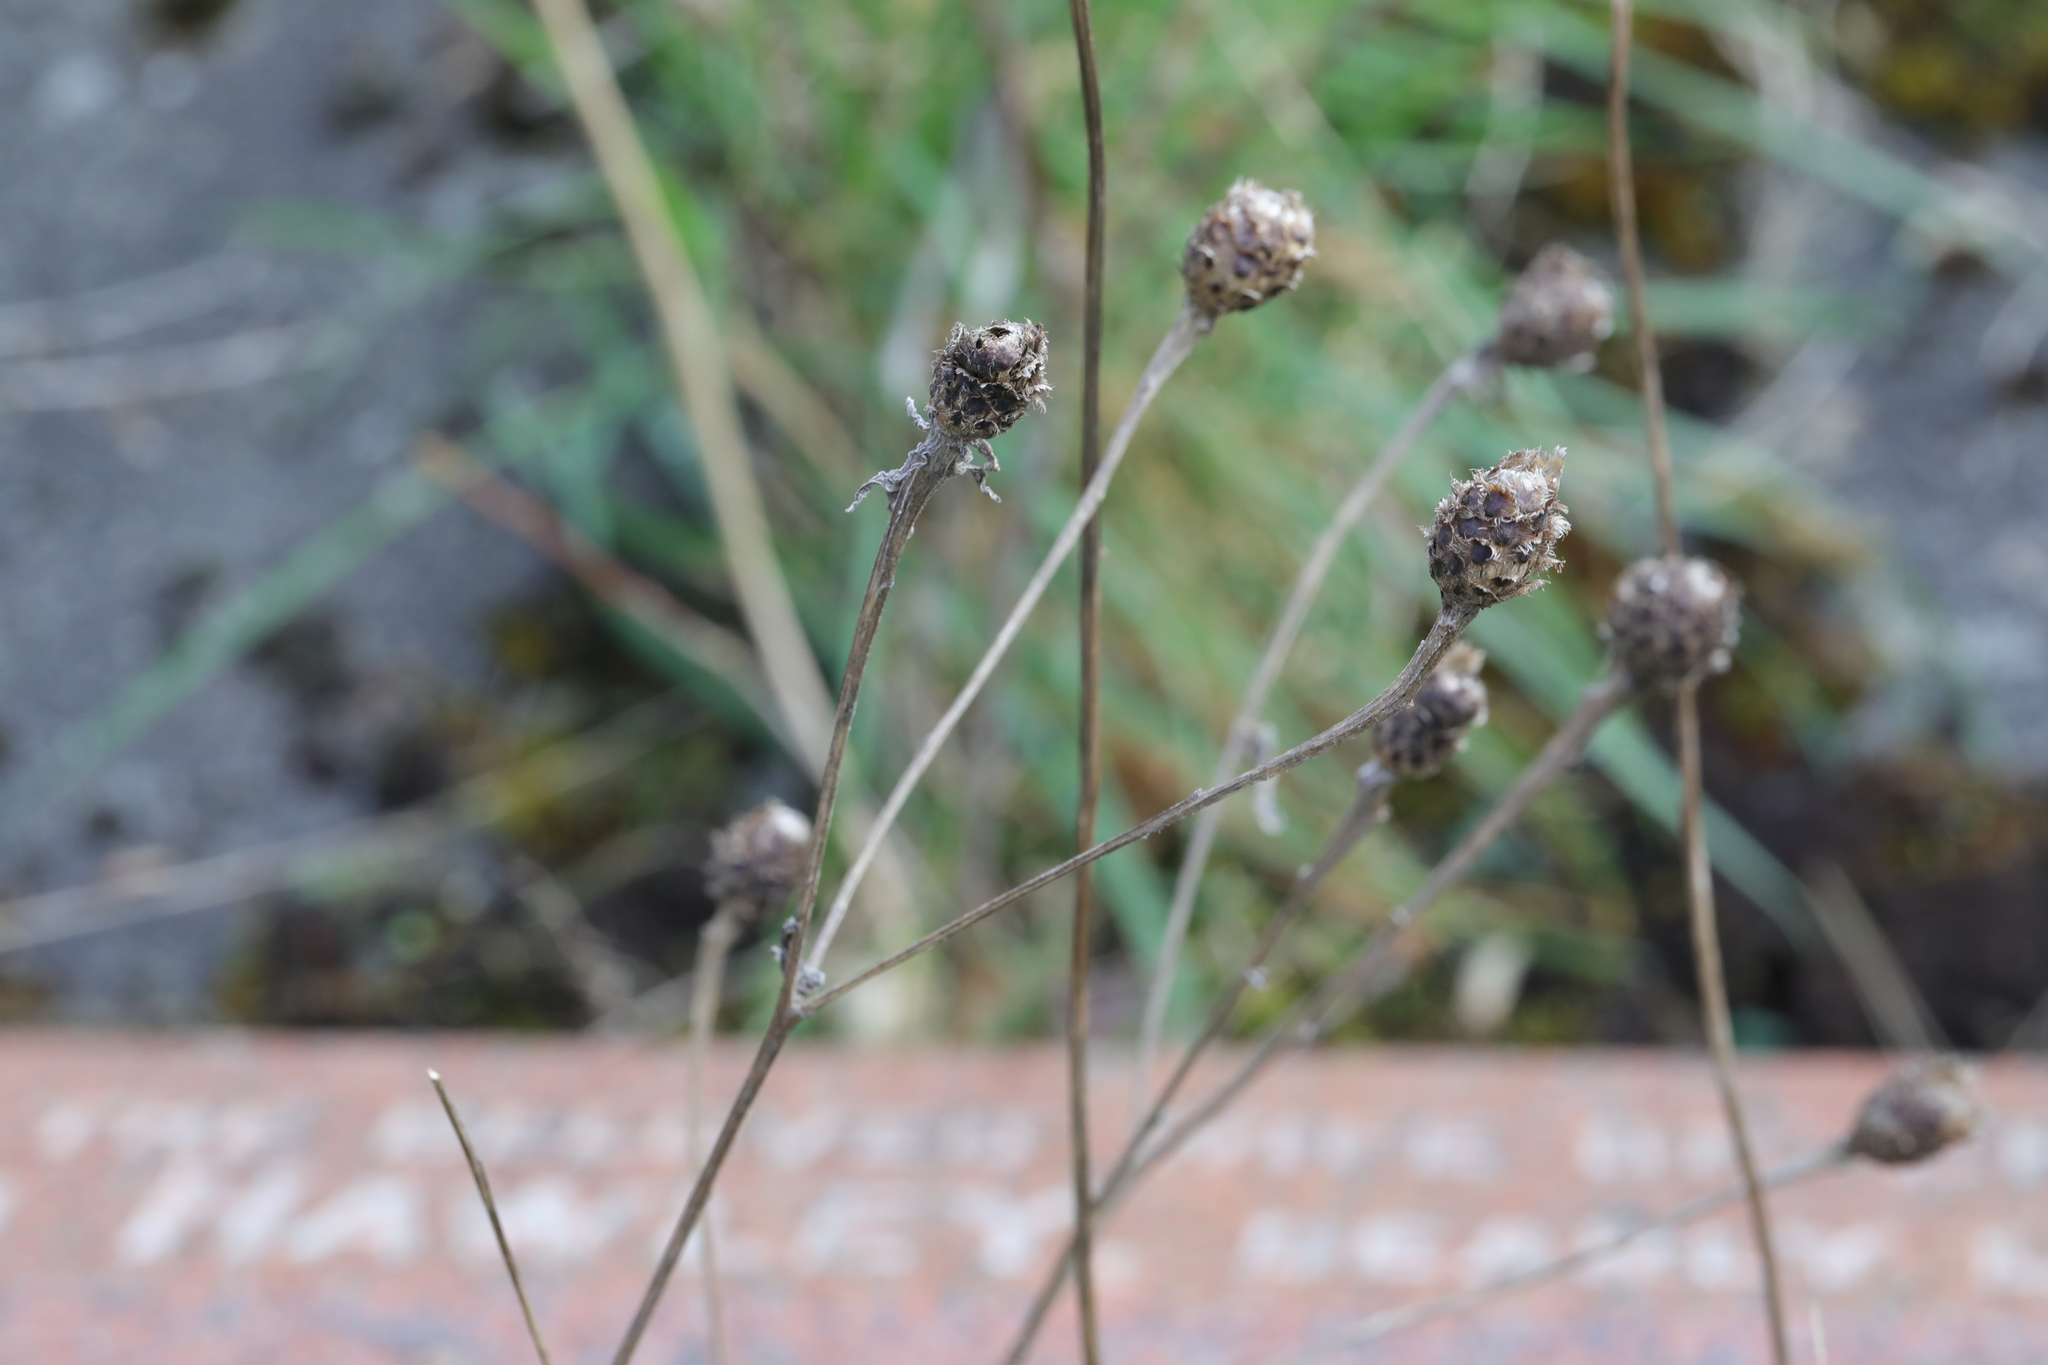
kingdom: Plantae
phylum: Tracheophyta
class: Magnoliopsida
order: Asterales
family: Asteraceae
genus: Centaurea
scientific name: Centaurea nigra
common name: Lesser knapweed
